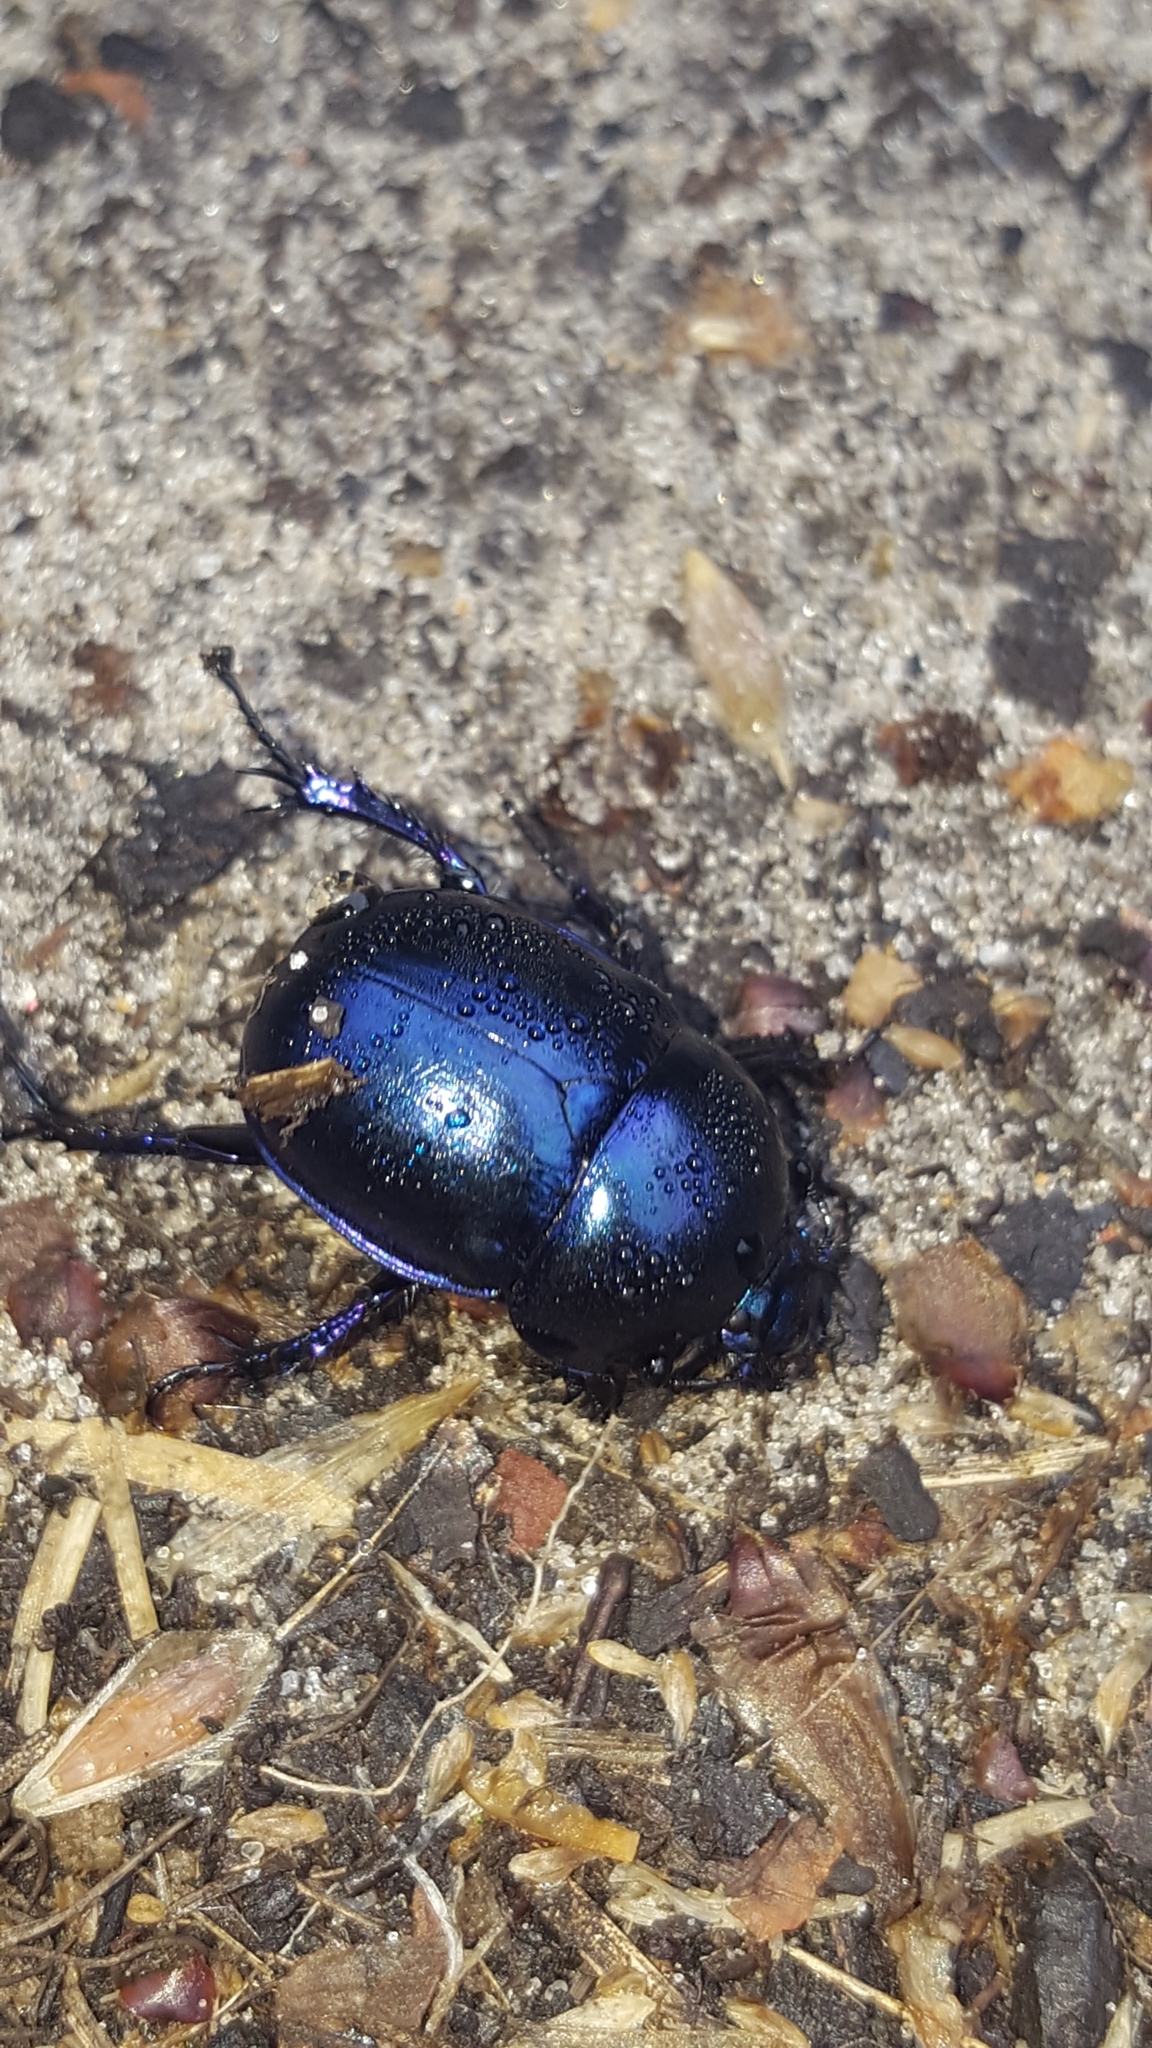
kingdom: Animalia
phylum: Arthropoda
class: Insecta
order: Coleoptera
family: Geotrupidae
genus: Trypocopris
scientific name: Trypocopris vernalis
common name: Spring dumbledor
